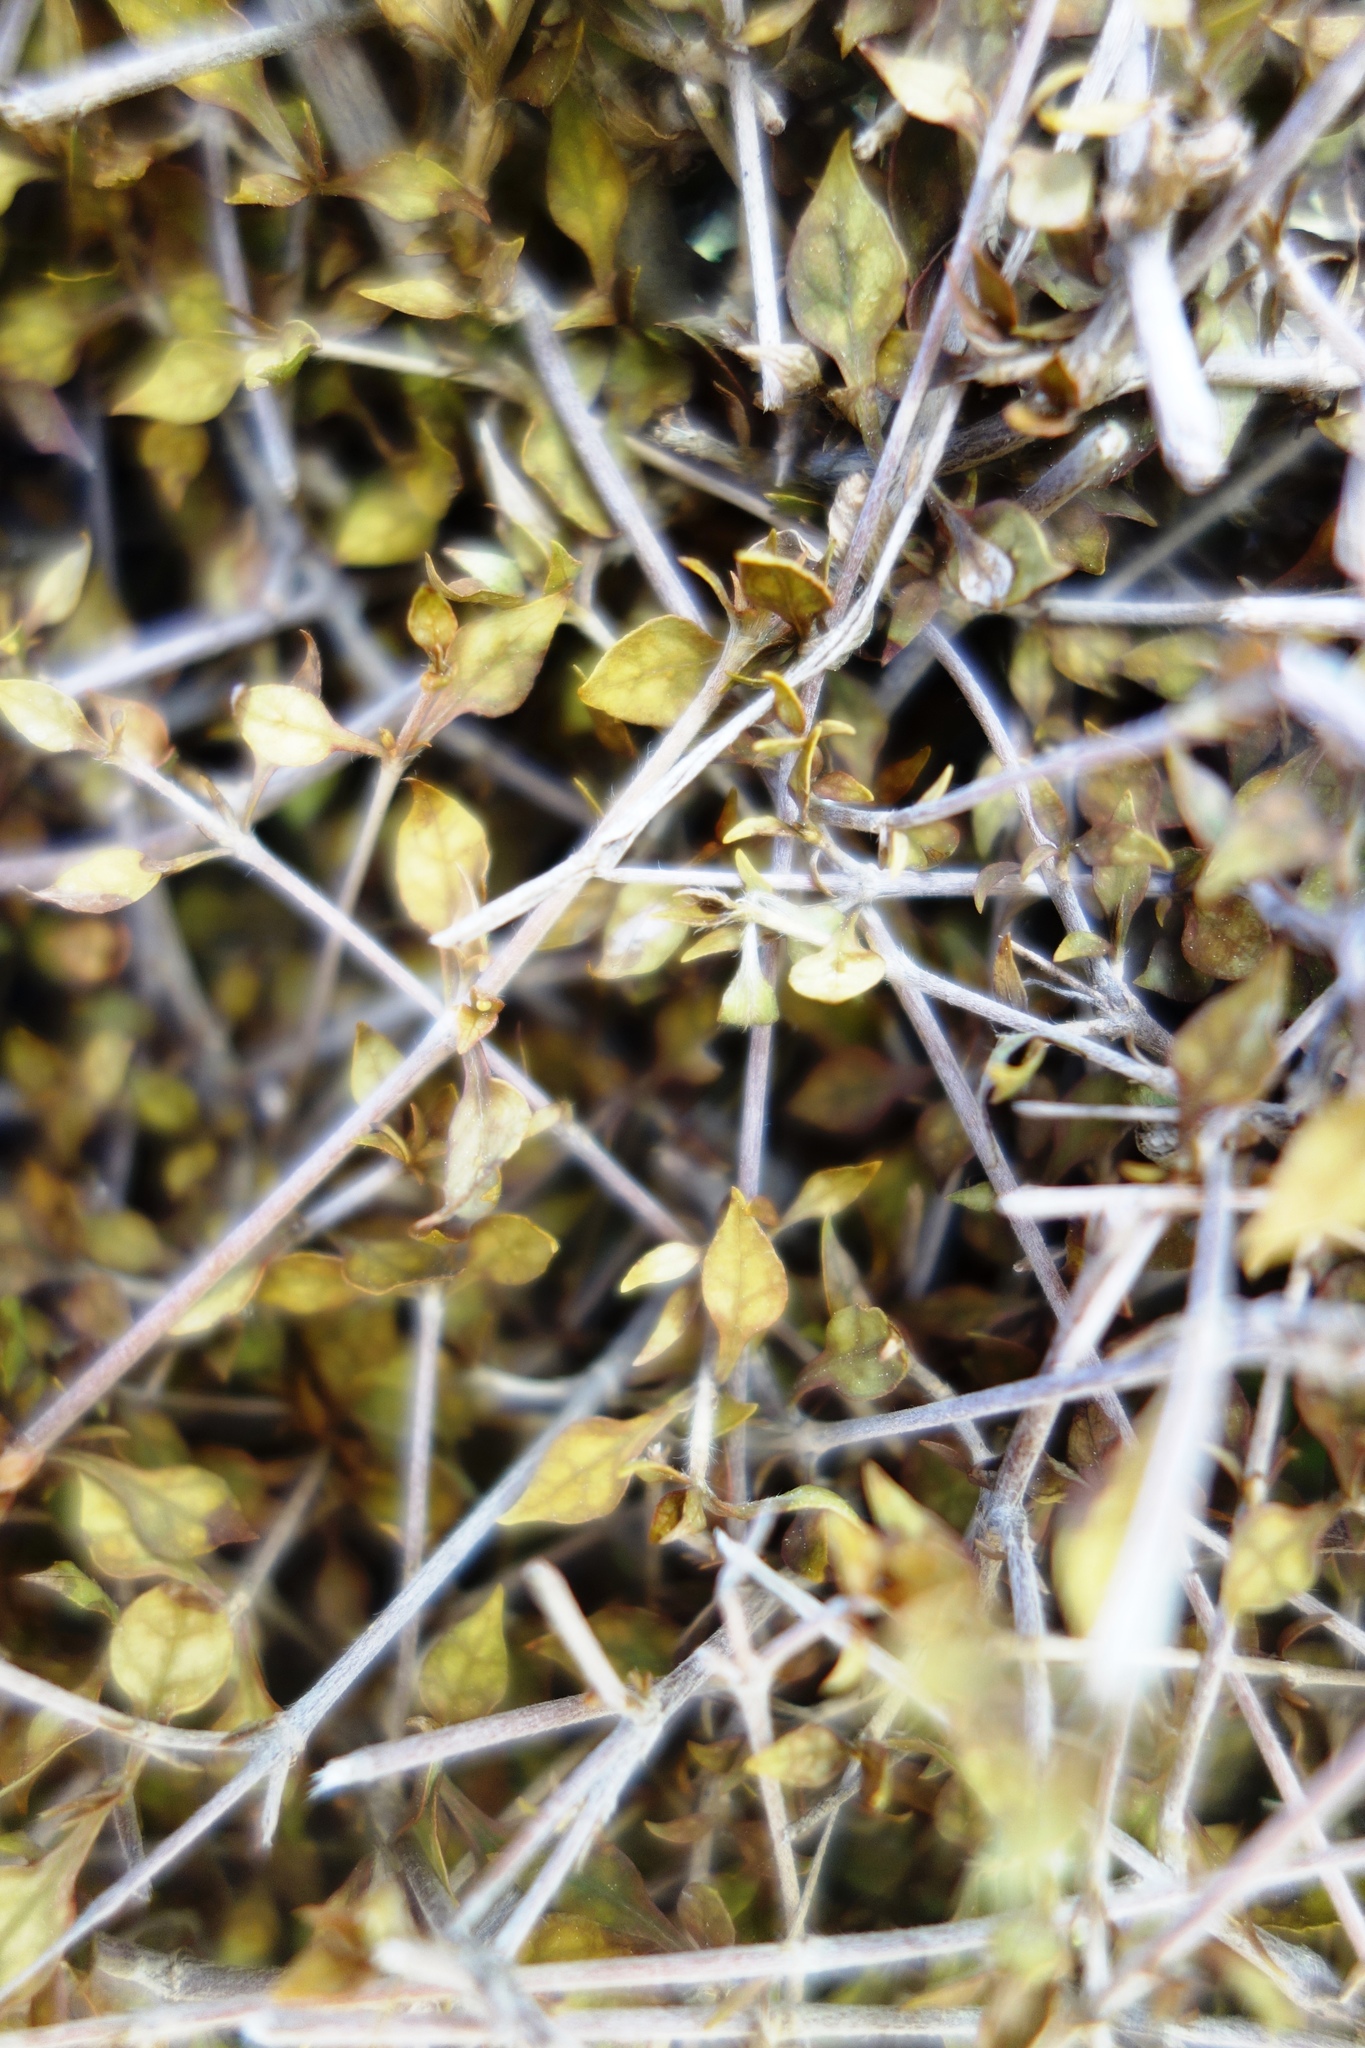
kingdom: Plantae
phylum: Tracheophyta
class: Magnoliopsida
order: Gentianales
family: Rubiaceae
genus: Coprosma
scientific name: Coprosma areolata
